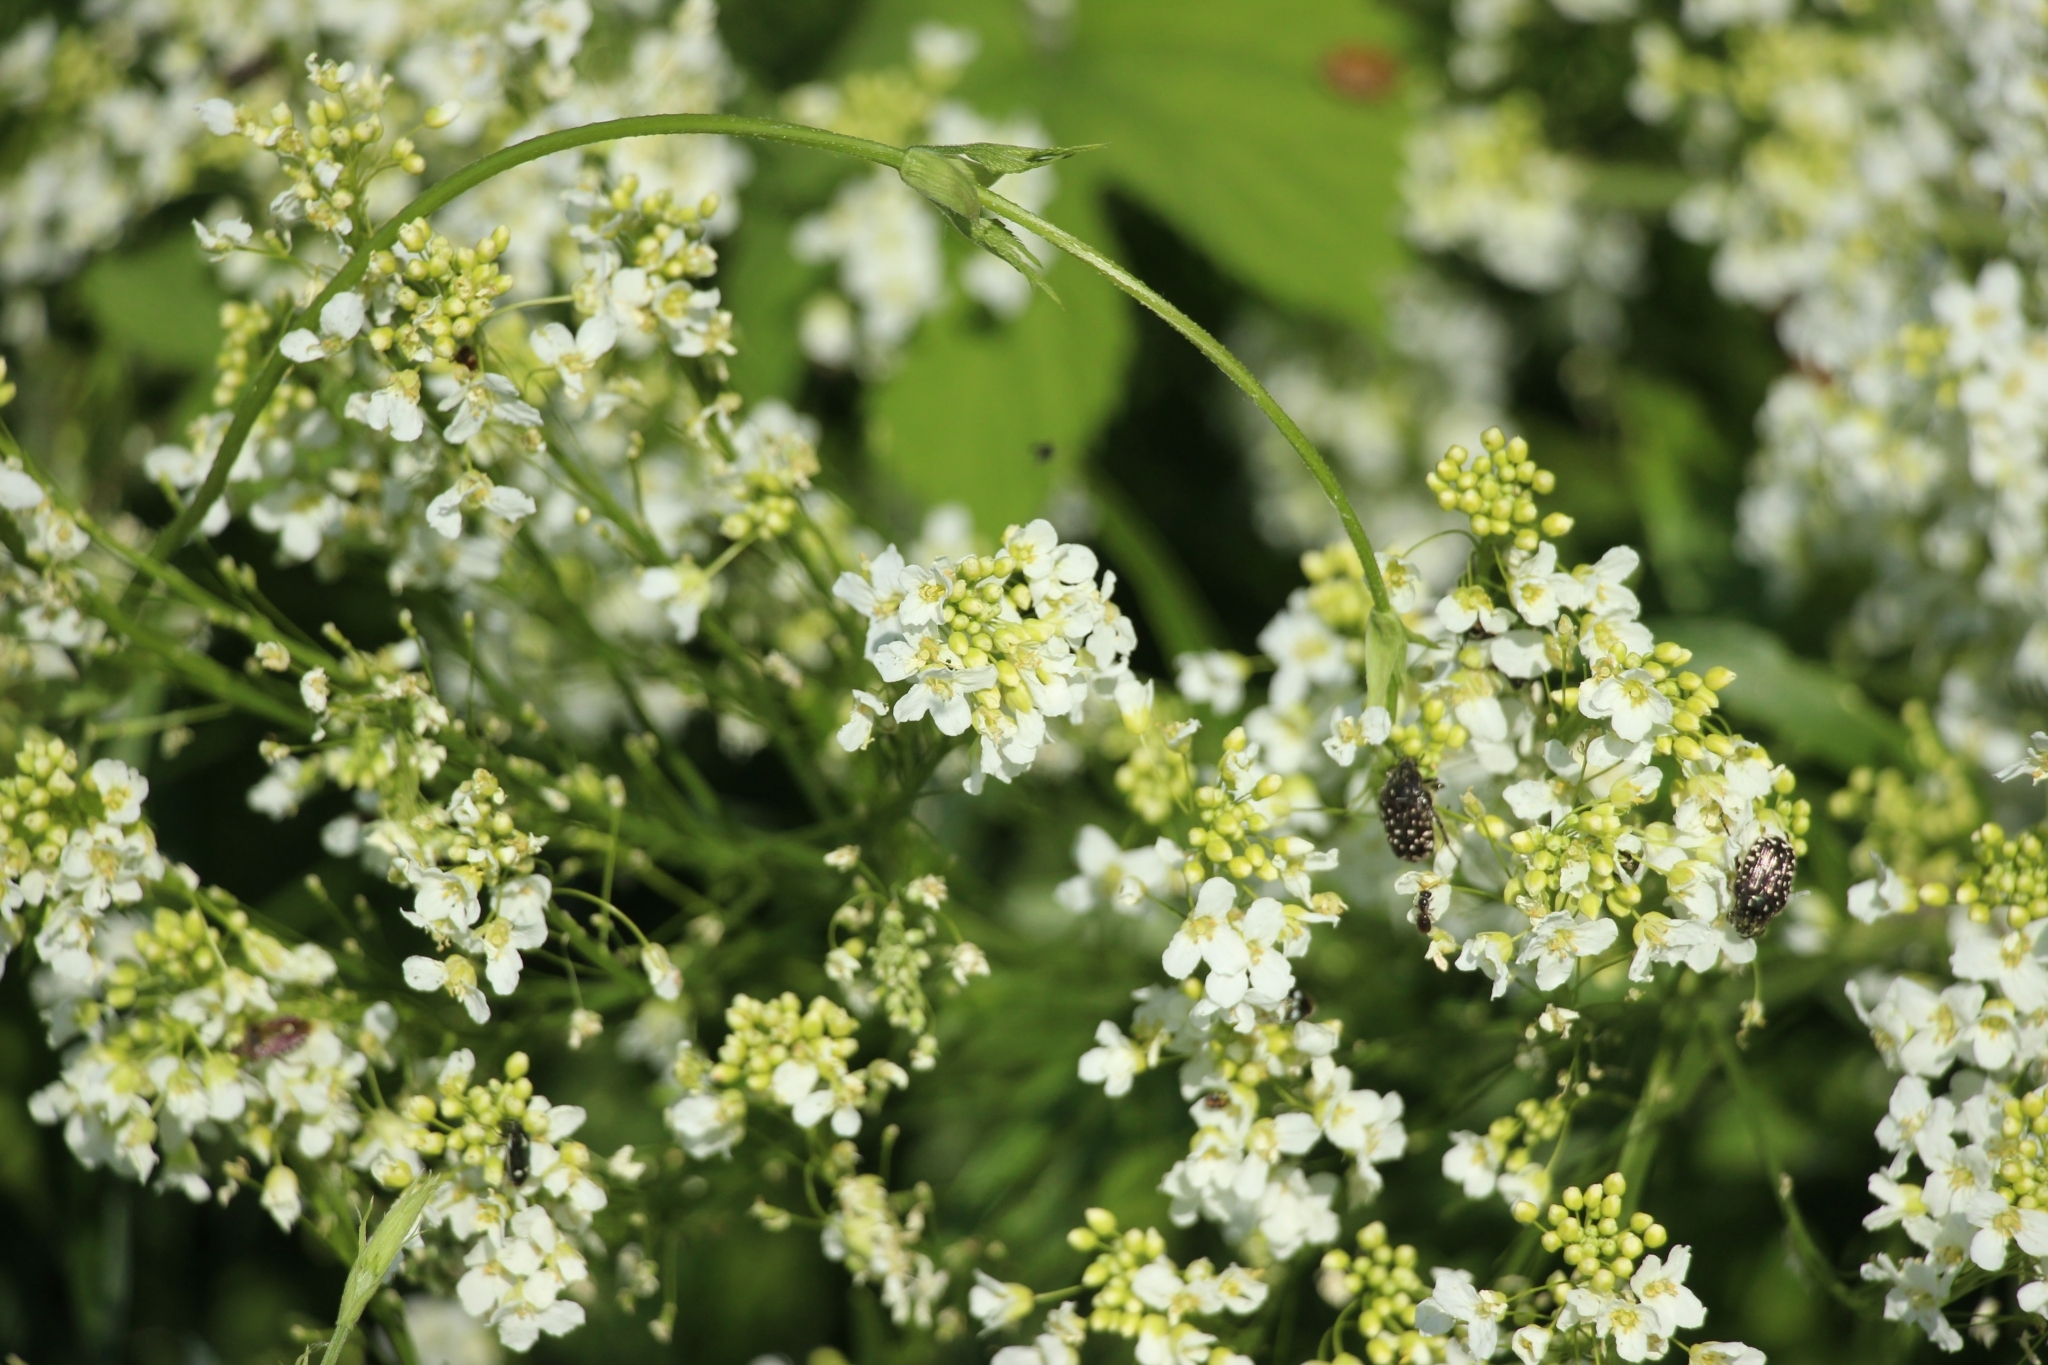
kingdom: Plantae
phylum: Tracheophyta
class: Magnoliopsida
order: Brassicales
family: Brassicaceae
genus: Armoracia
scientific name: Armoracia rusticana
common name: Horseradish
